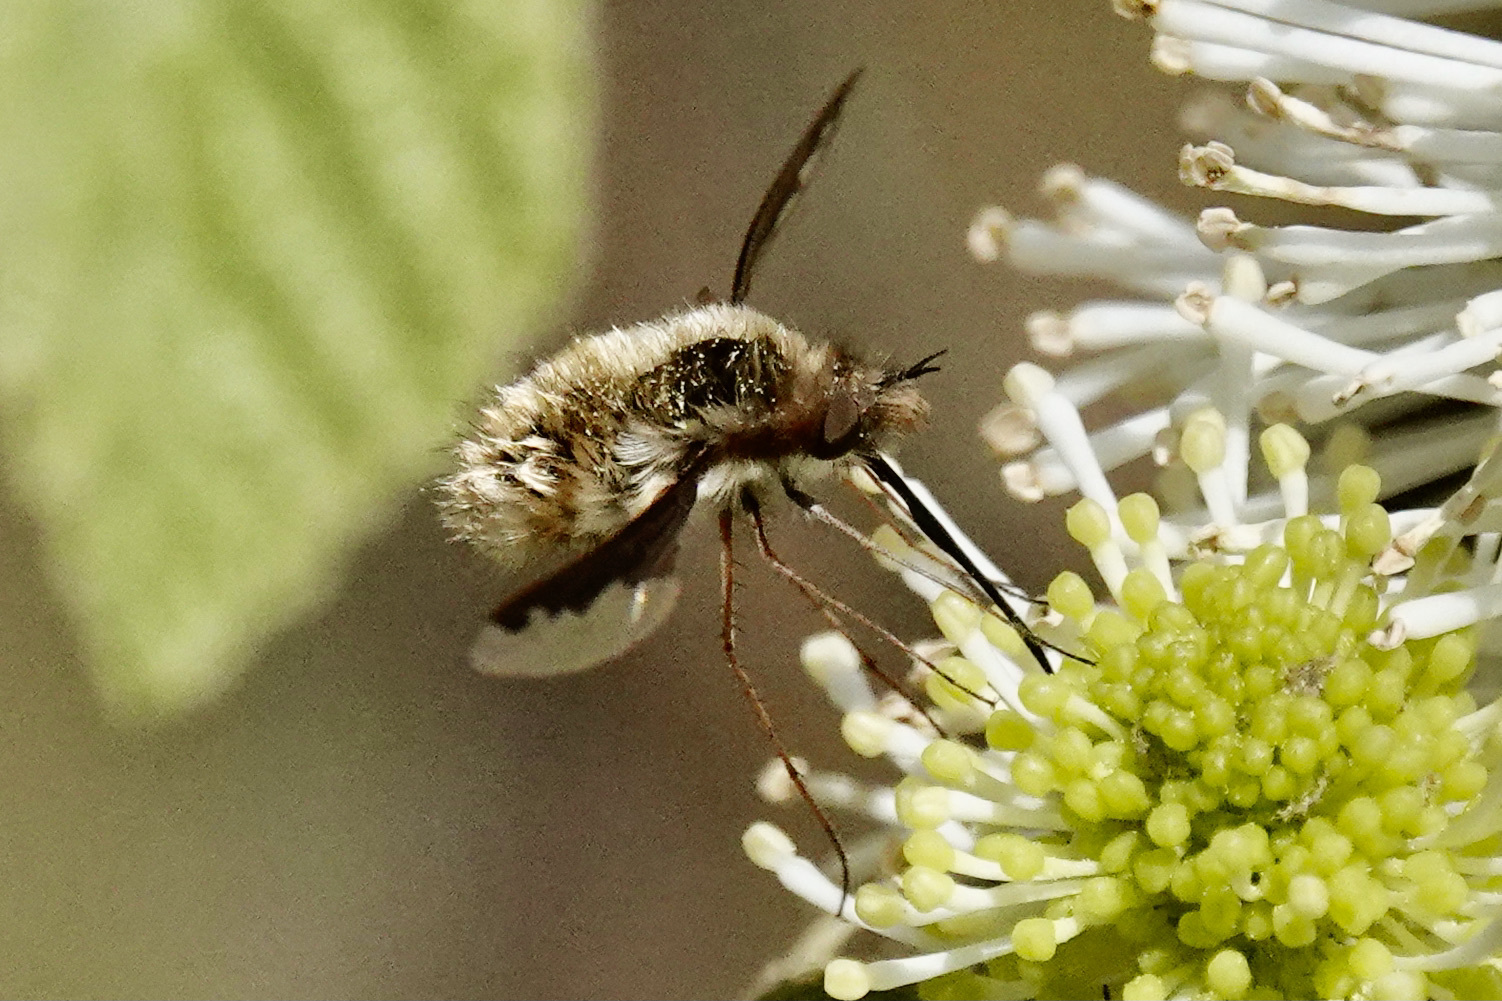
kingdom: Animalia
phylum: Arthropoda
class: Insecta
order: Diptera
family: Bombyliidae
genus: Bombylius
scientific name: Bombylius major
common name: Bee fly
